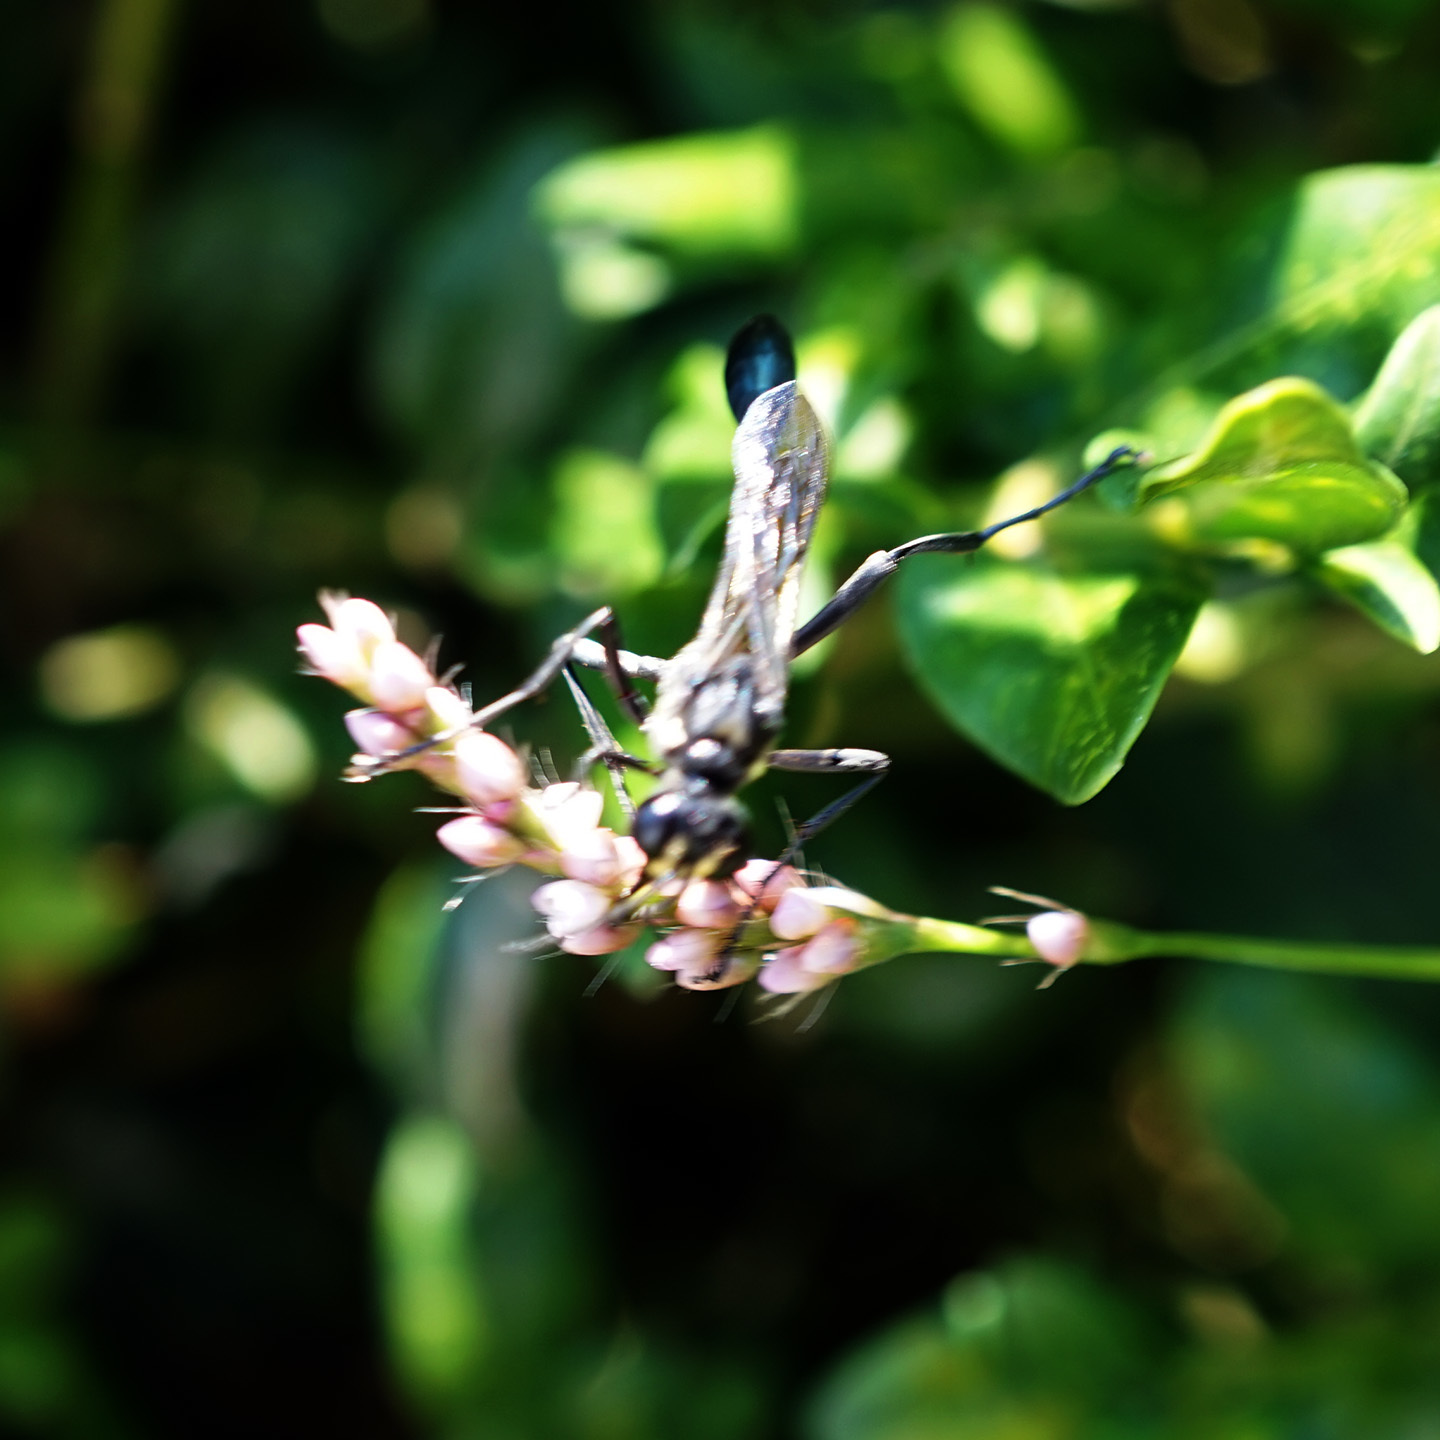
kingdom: Animalia
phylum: Arthropoda
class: Insecta
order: Hymenoptera
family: Sphecidae
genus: Eremnophila
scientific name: Eremnophila aureonotata
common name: Gold-marked thread-waisted wasp
